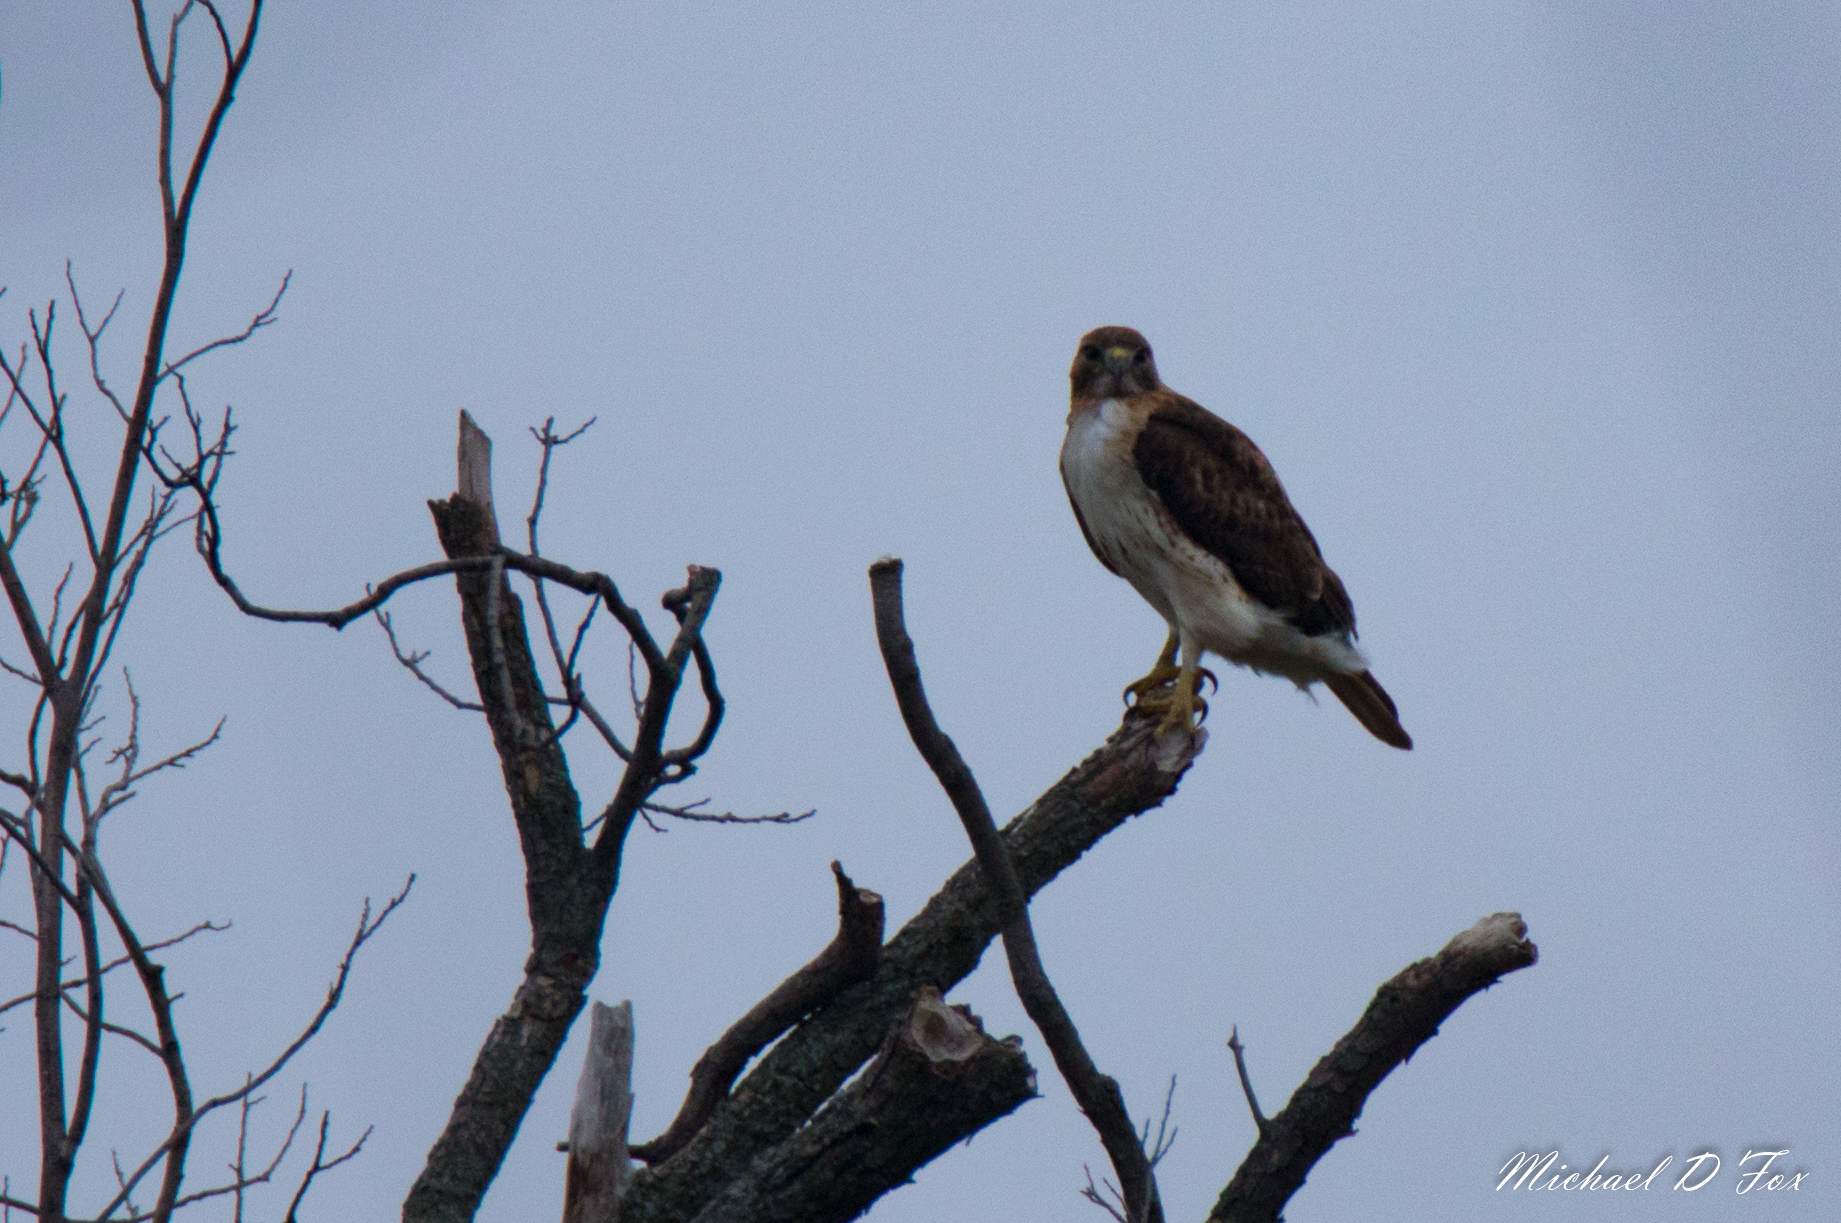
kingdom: Animalia
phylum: Chordata
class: Aves
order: Accipitriformes
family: Accipitridae
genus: Buteo
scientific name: Buteo jamaicensis
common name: Red-tailed hawk
